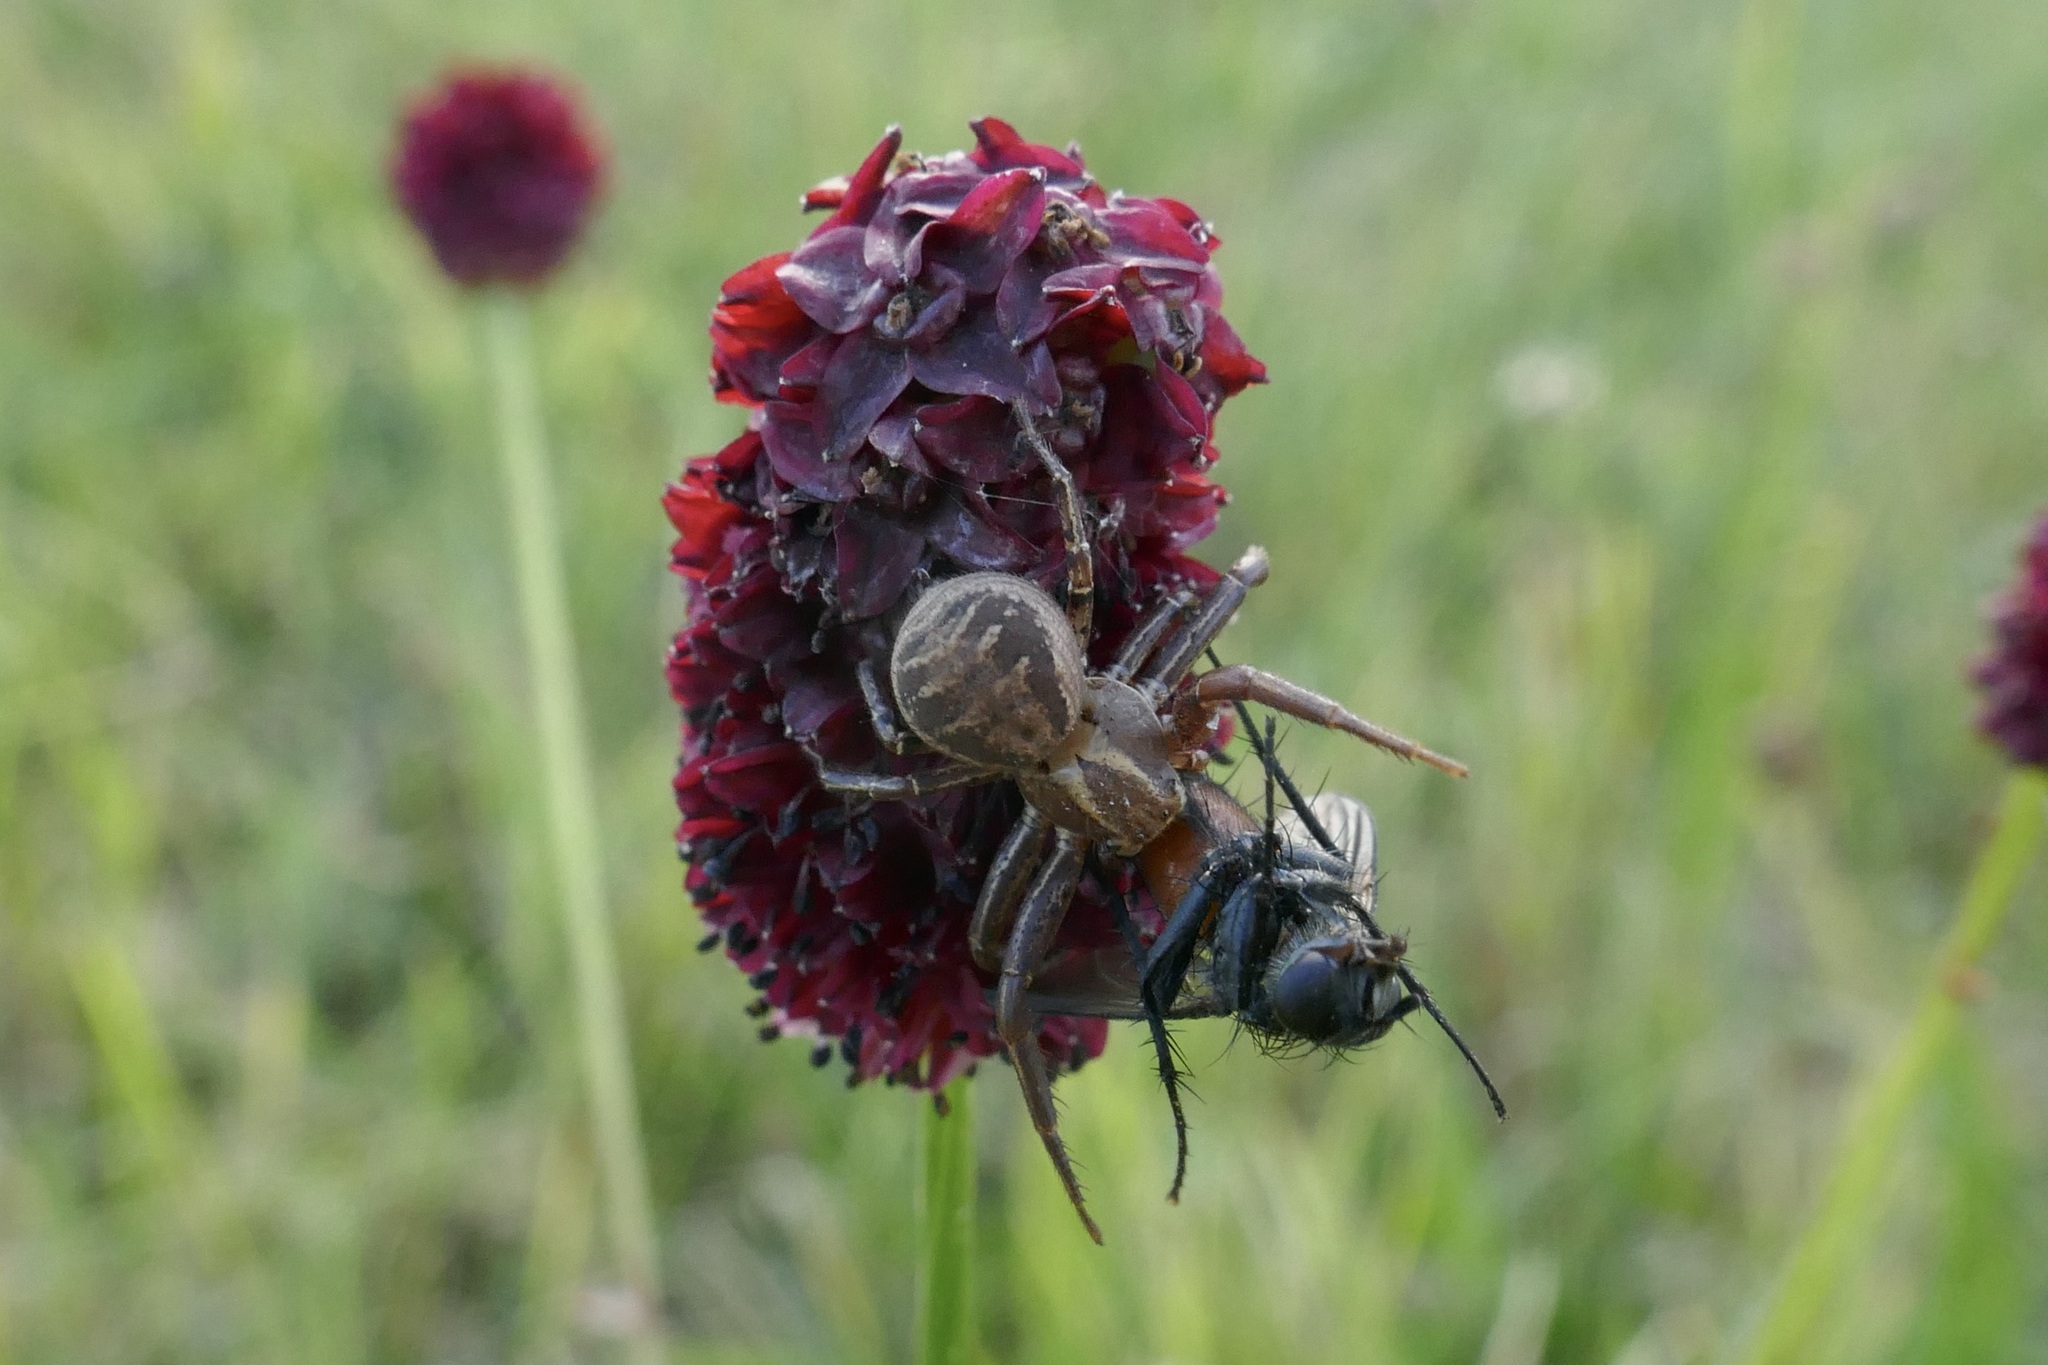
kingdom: Animalia
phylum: Arthropoda
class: Arachnida
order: Araneae
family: Thomisidae
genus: Xysticus
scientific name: Xysticus
